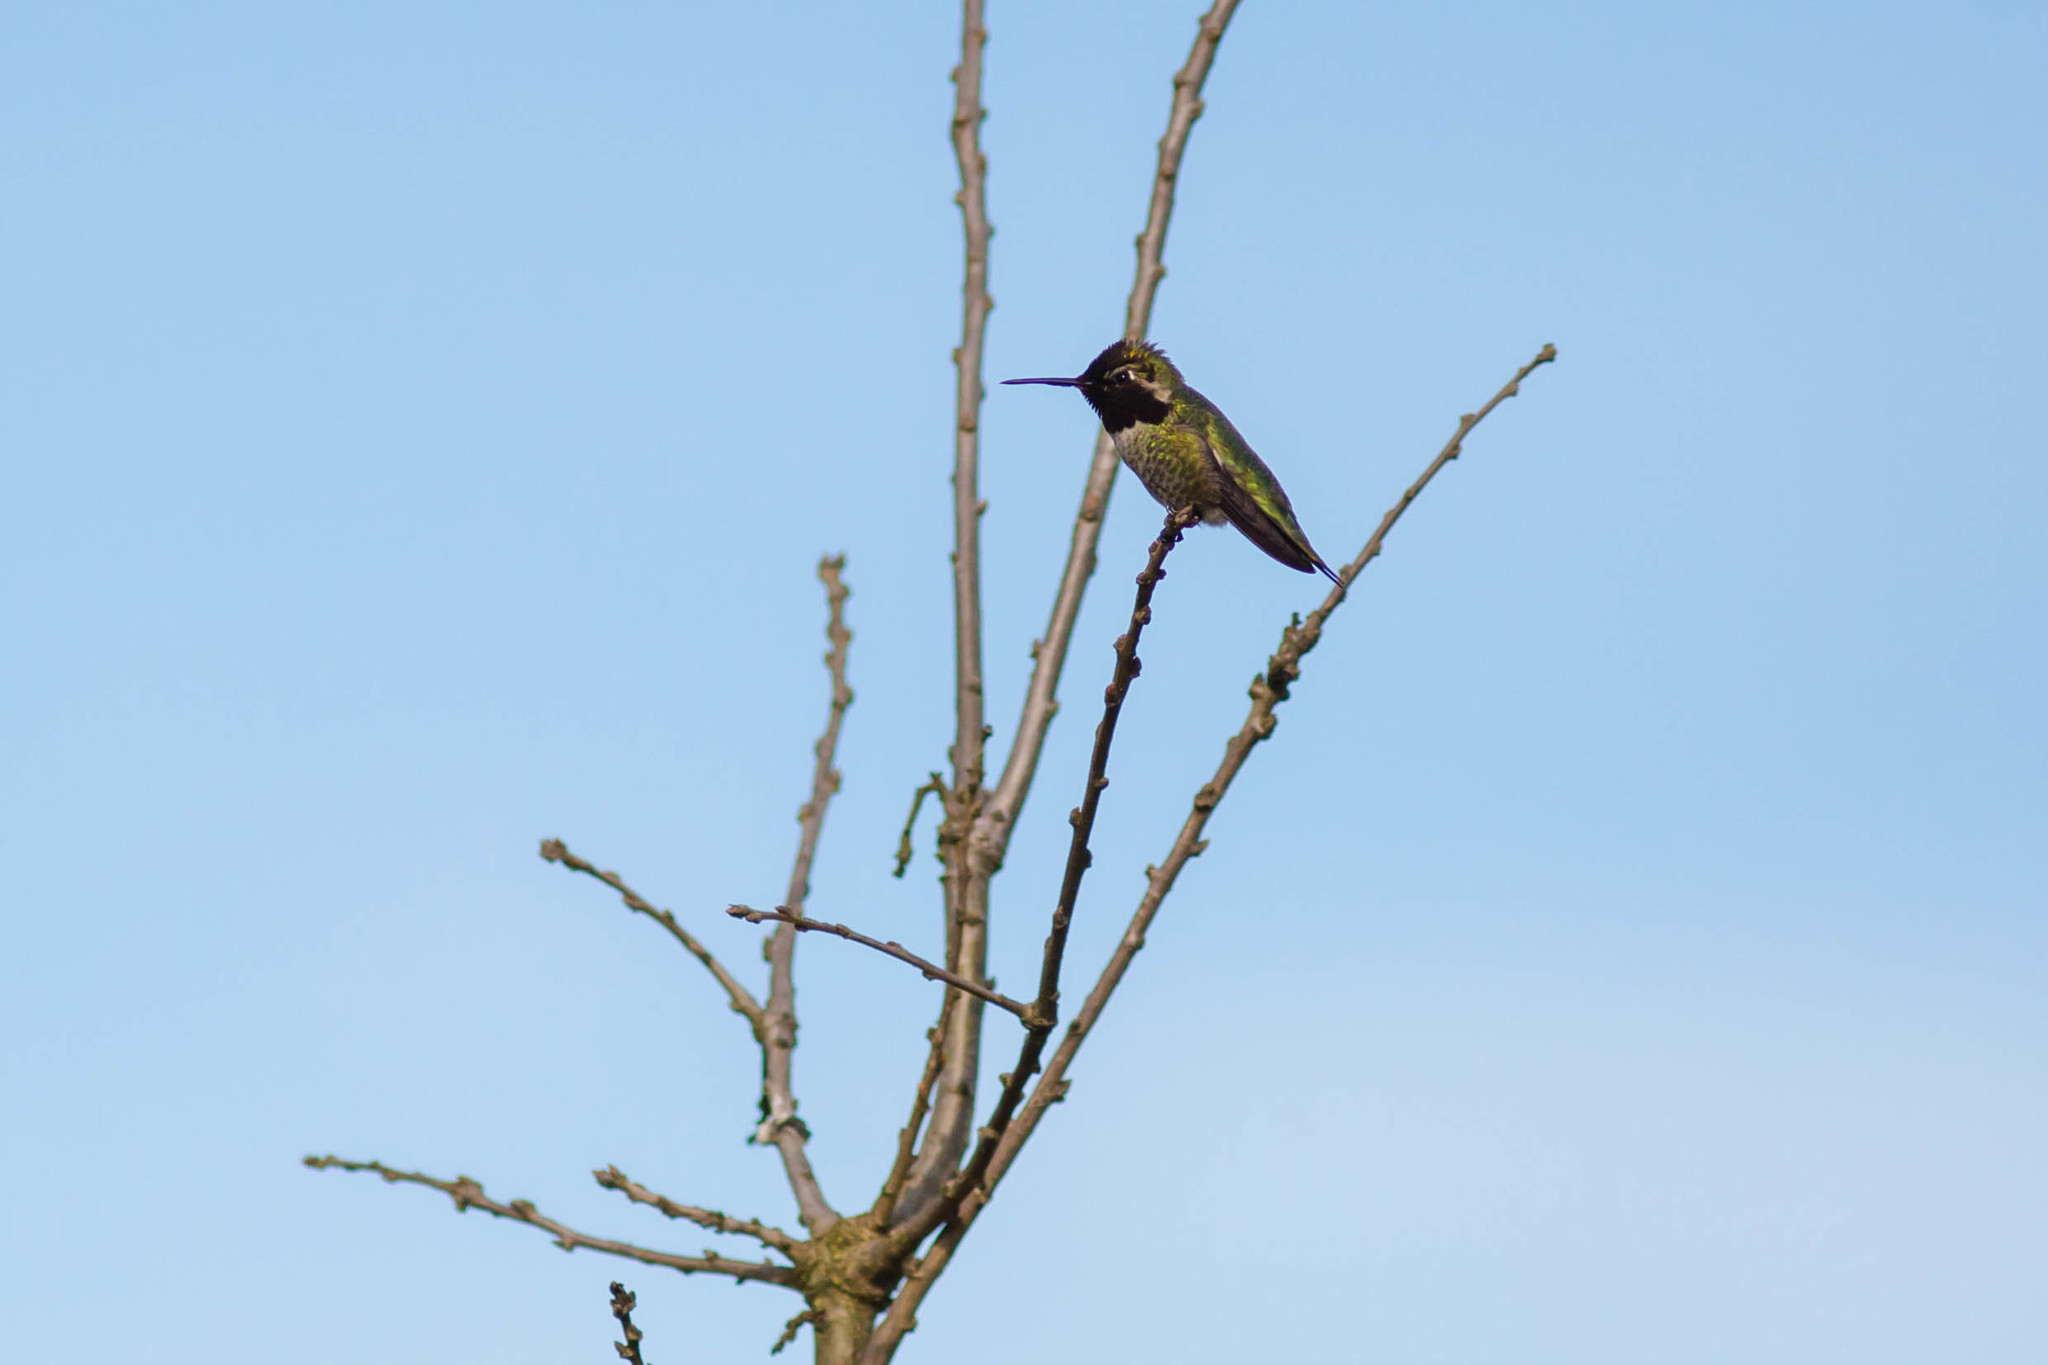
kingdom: Animalia
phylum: Chordata
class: Aves
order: Apodiformes
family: Trochilidae
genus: Calypte
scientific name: Calypte anna
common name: Anna's hummingbird
